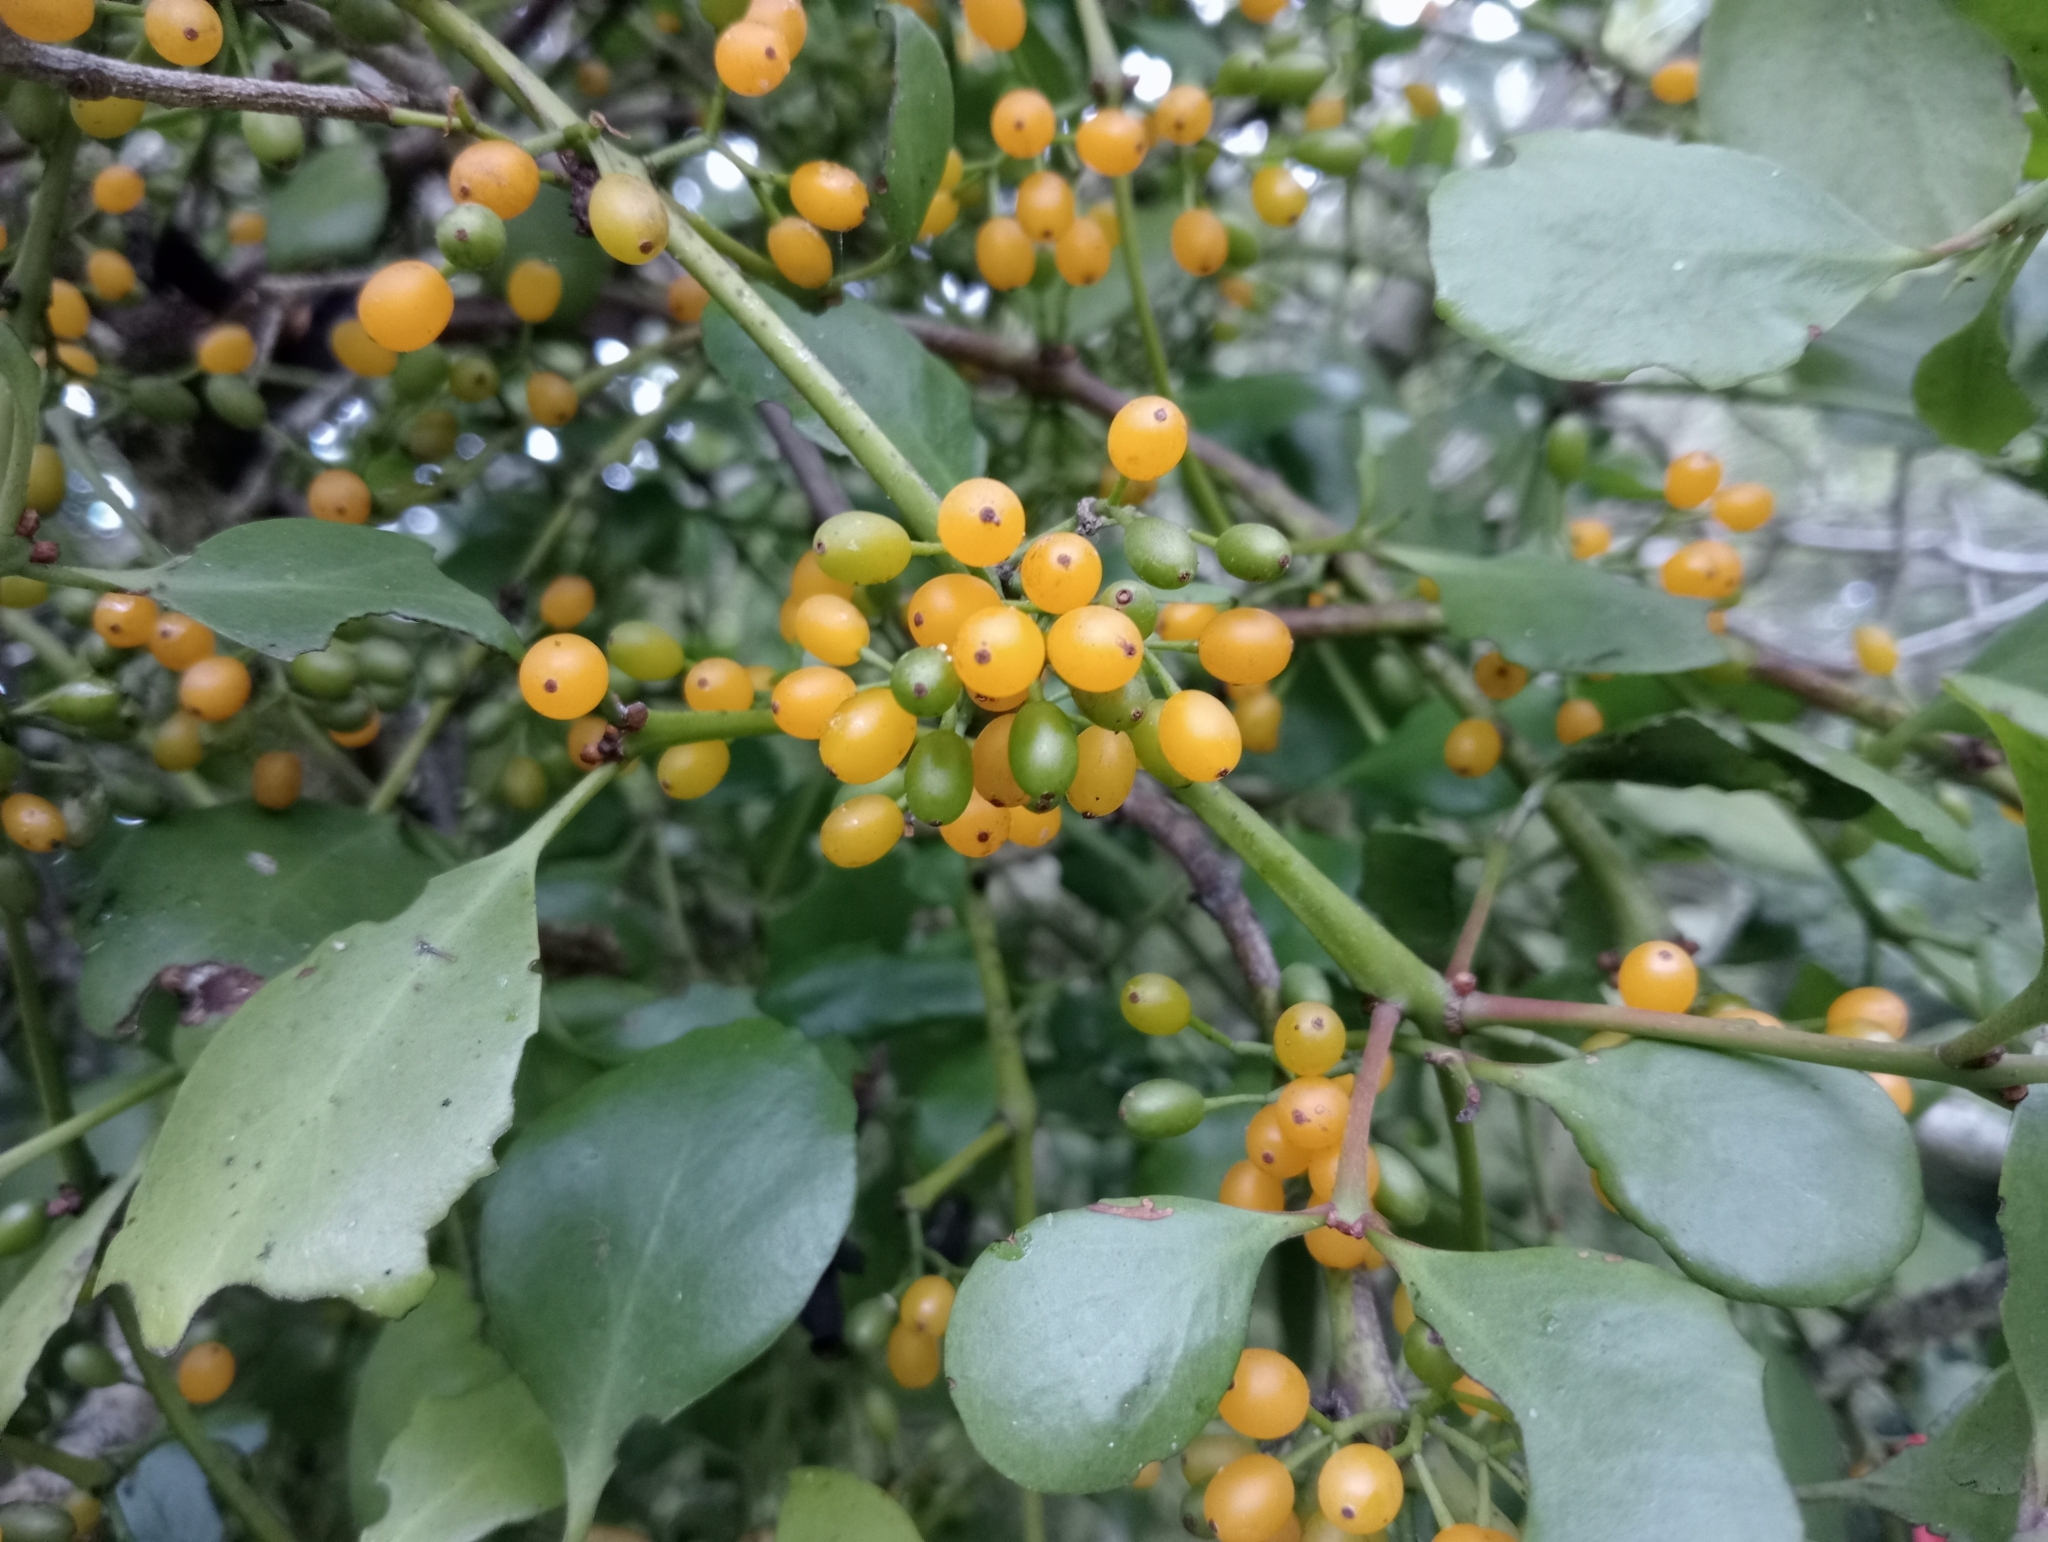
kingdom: Plantae
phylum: Tracheophyta
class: Magnoliopsida
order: Santalales
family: Loranthaceae
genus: Ileostylus
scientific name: Ileostylus micranthus
